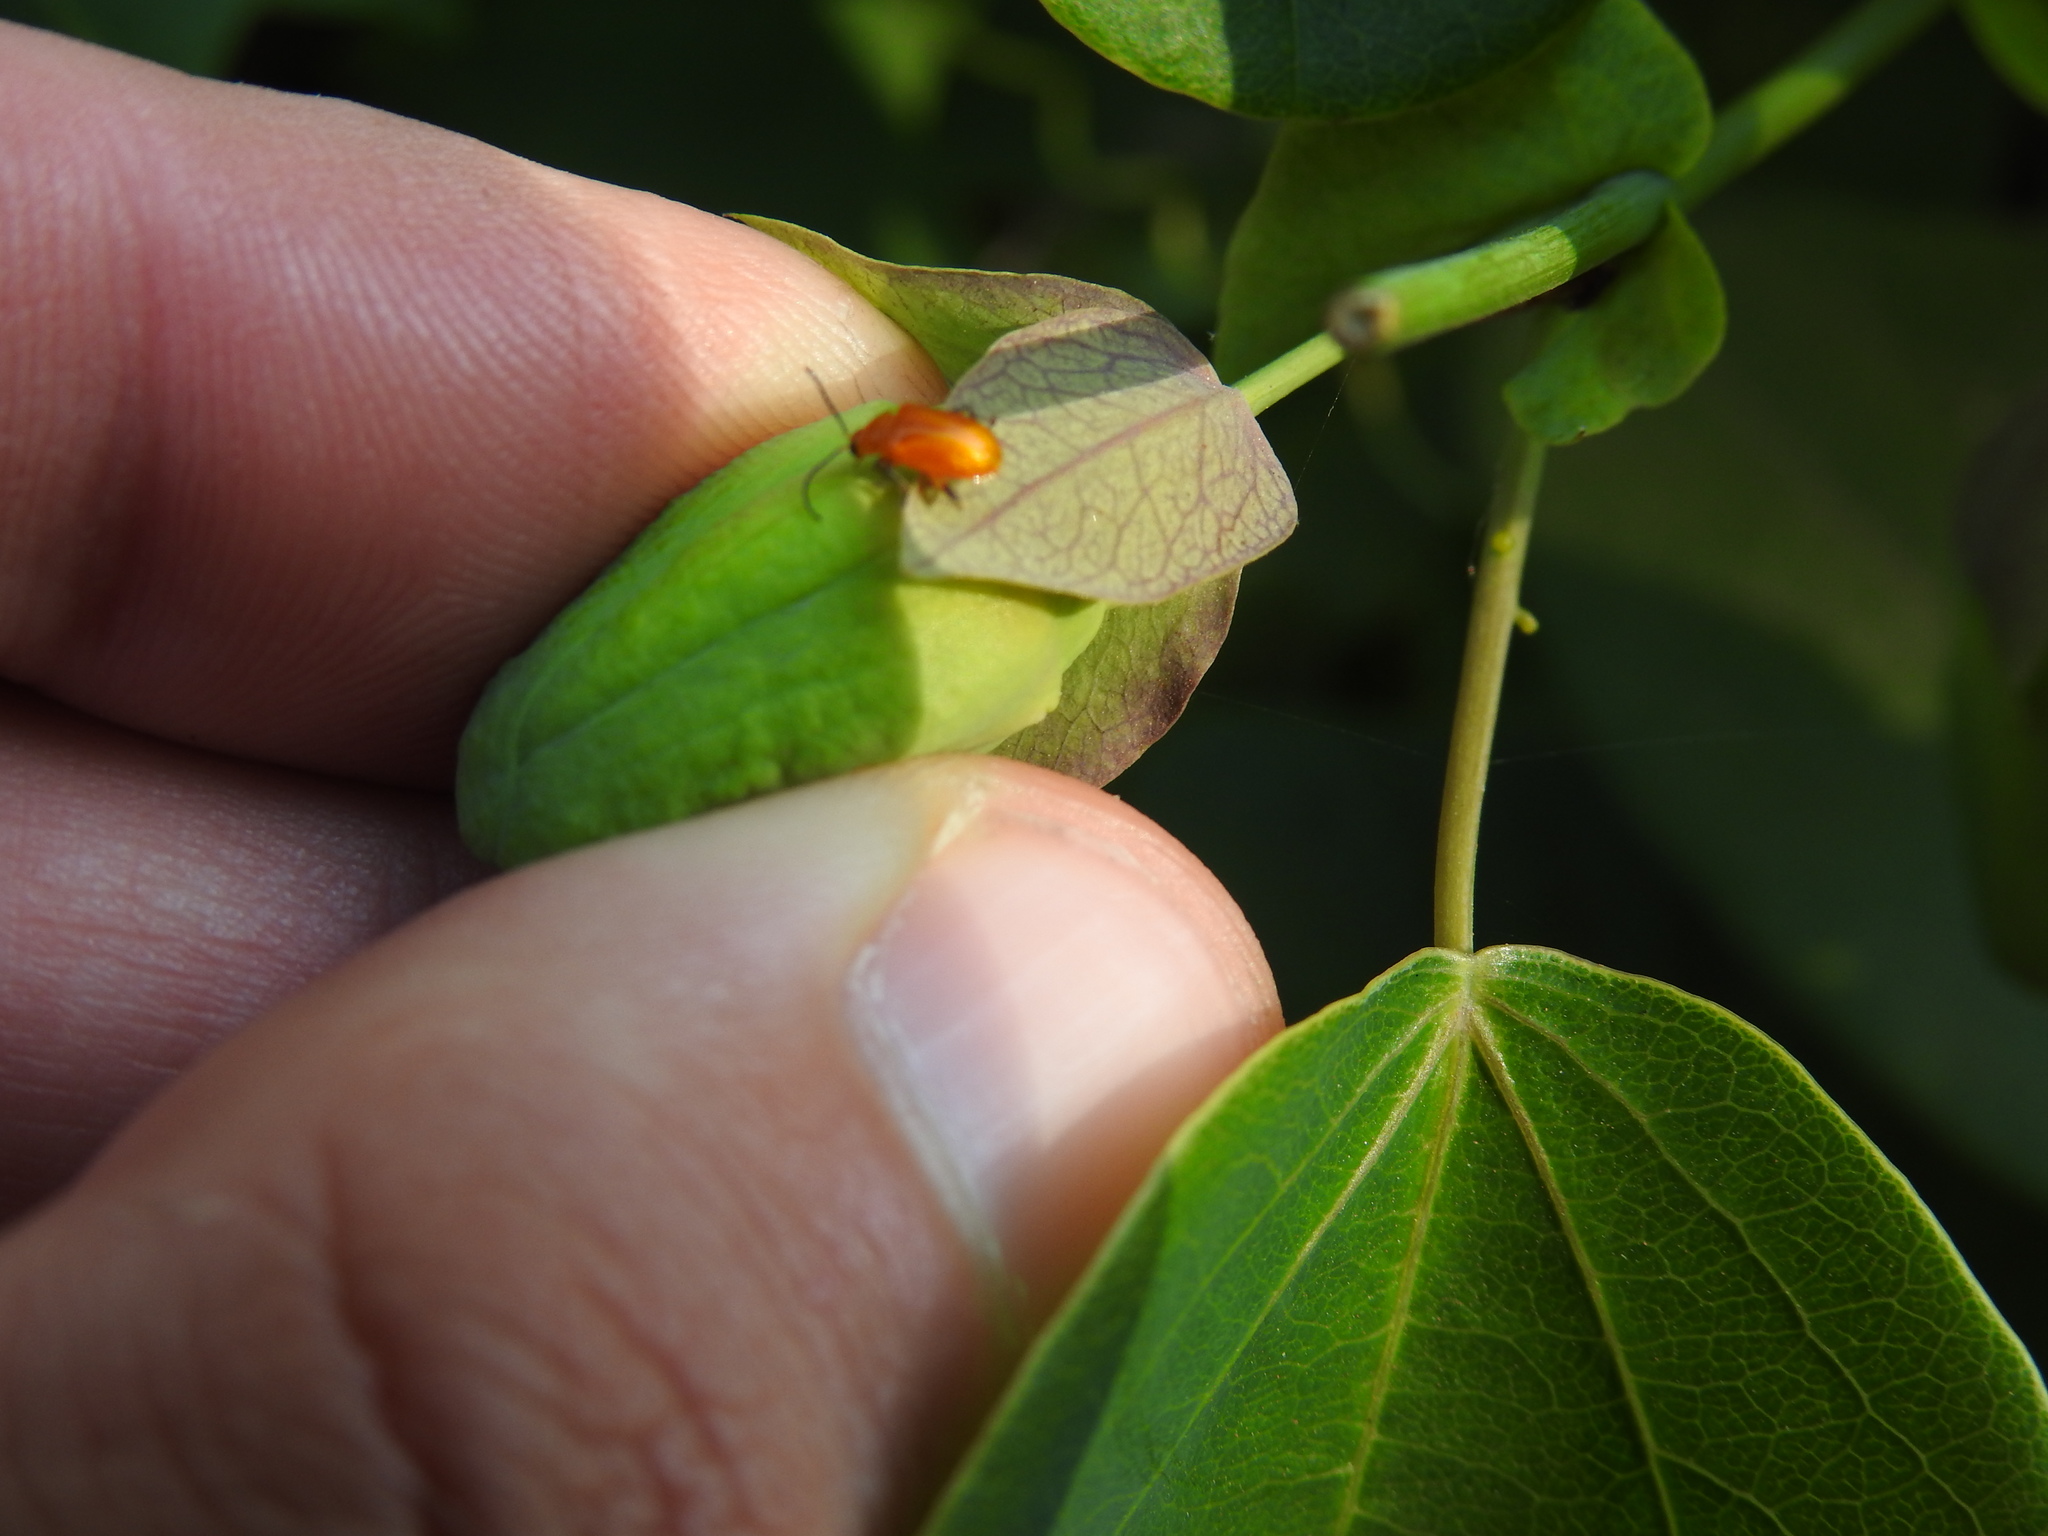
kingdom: Animalia
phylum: Arthropoda
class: Insecta
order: Coleoptera
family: Chrysomelidae
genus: Parchicola
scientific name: Parchicola
